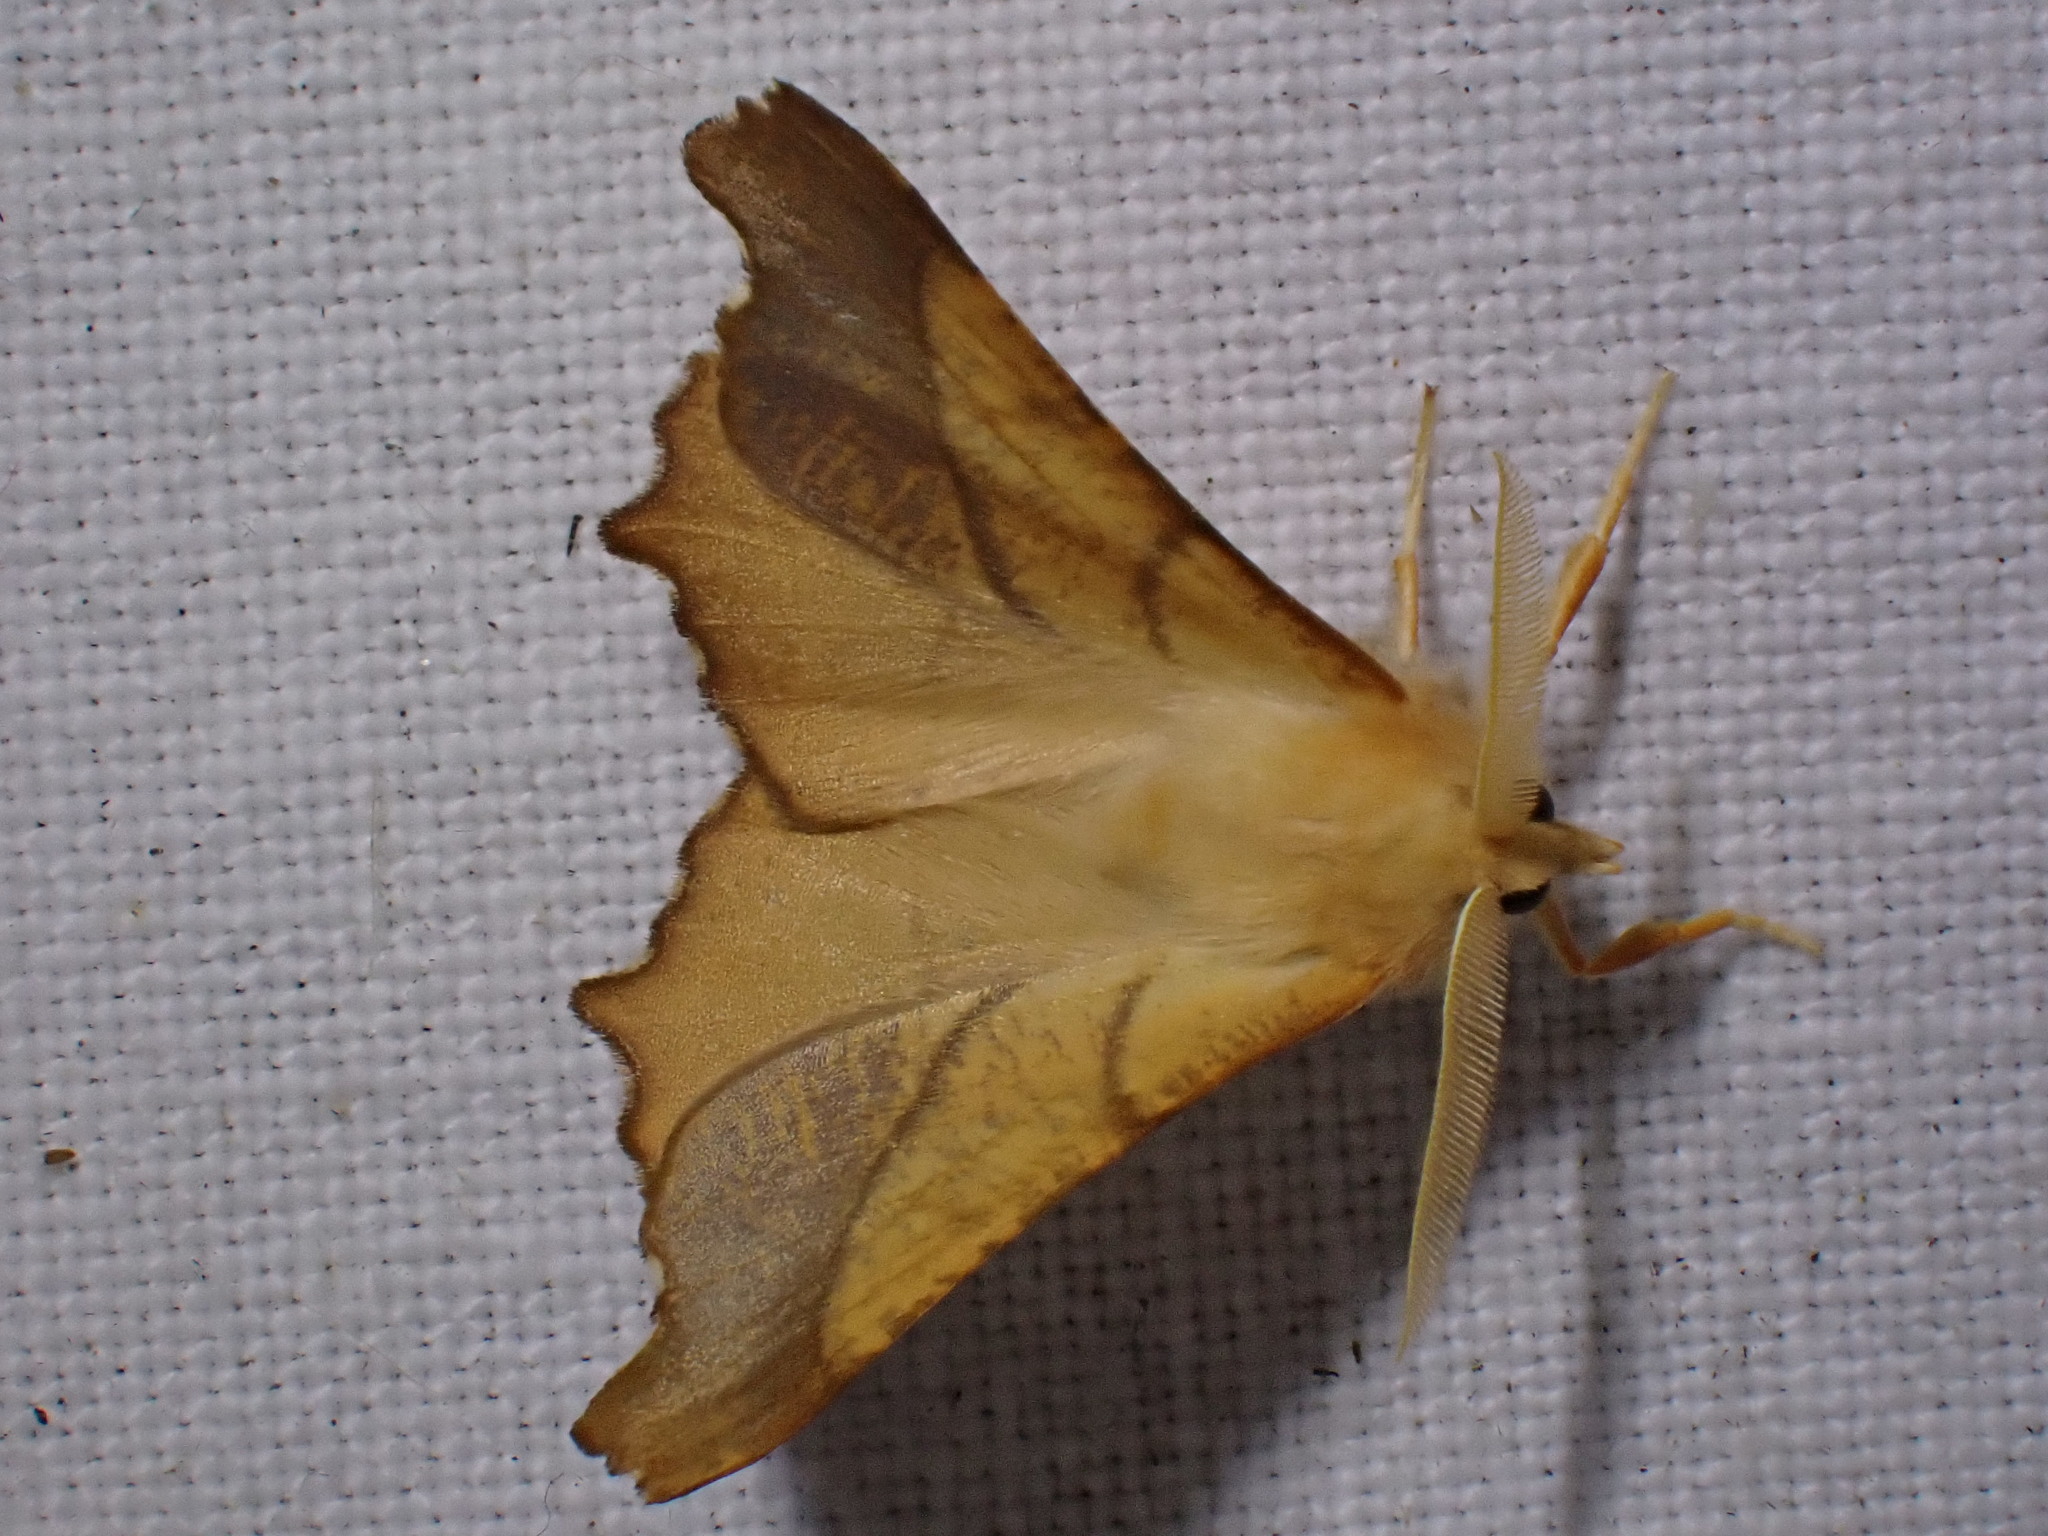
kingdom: Animalia
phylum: Arthropoda
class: Insecta
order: Lepidoptera
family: Geometridae
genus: Ennomos
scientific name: Ennomos fuscantaria
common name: Dusky thorn
